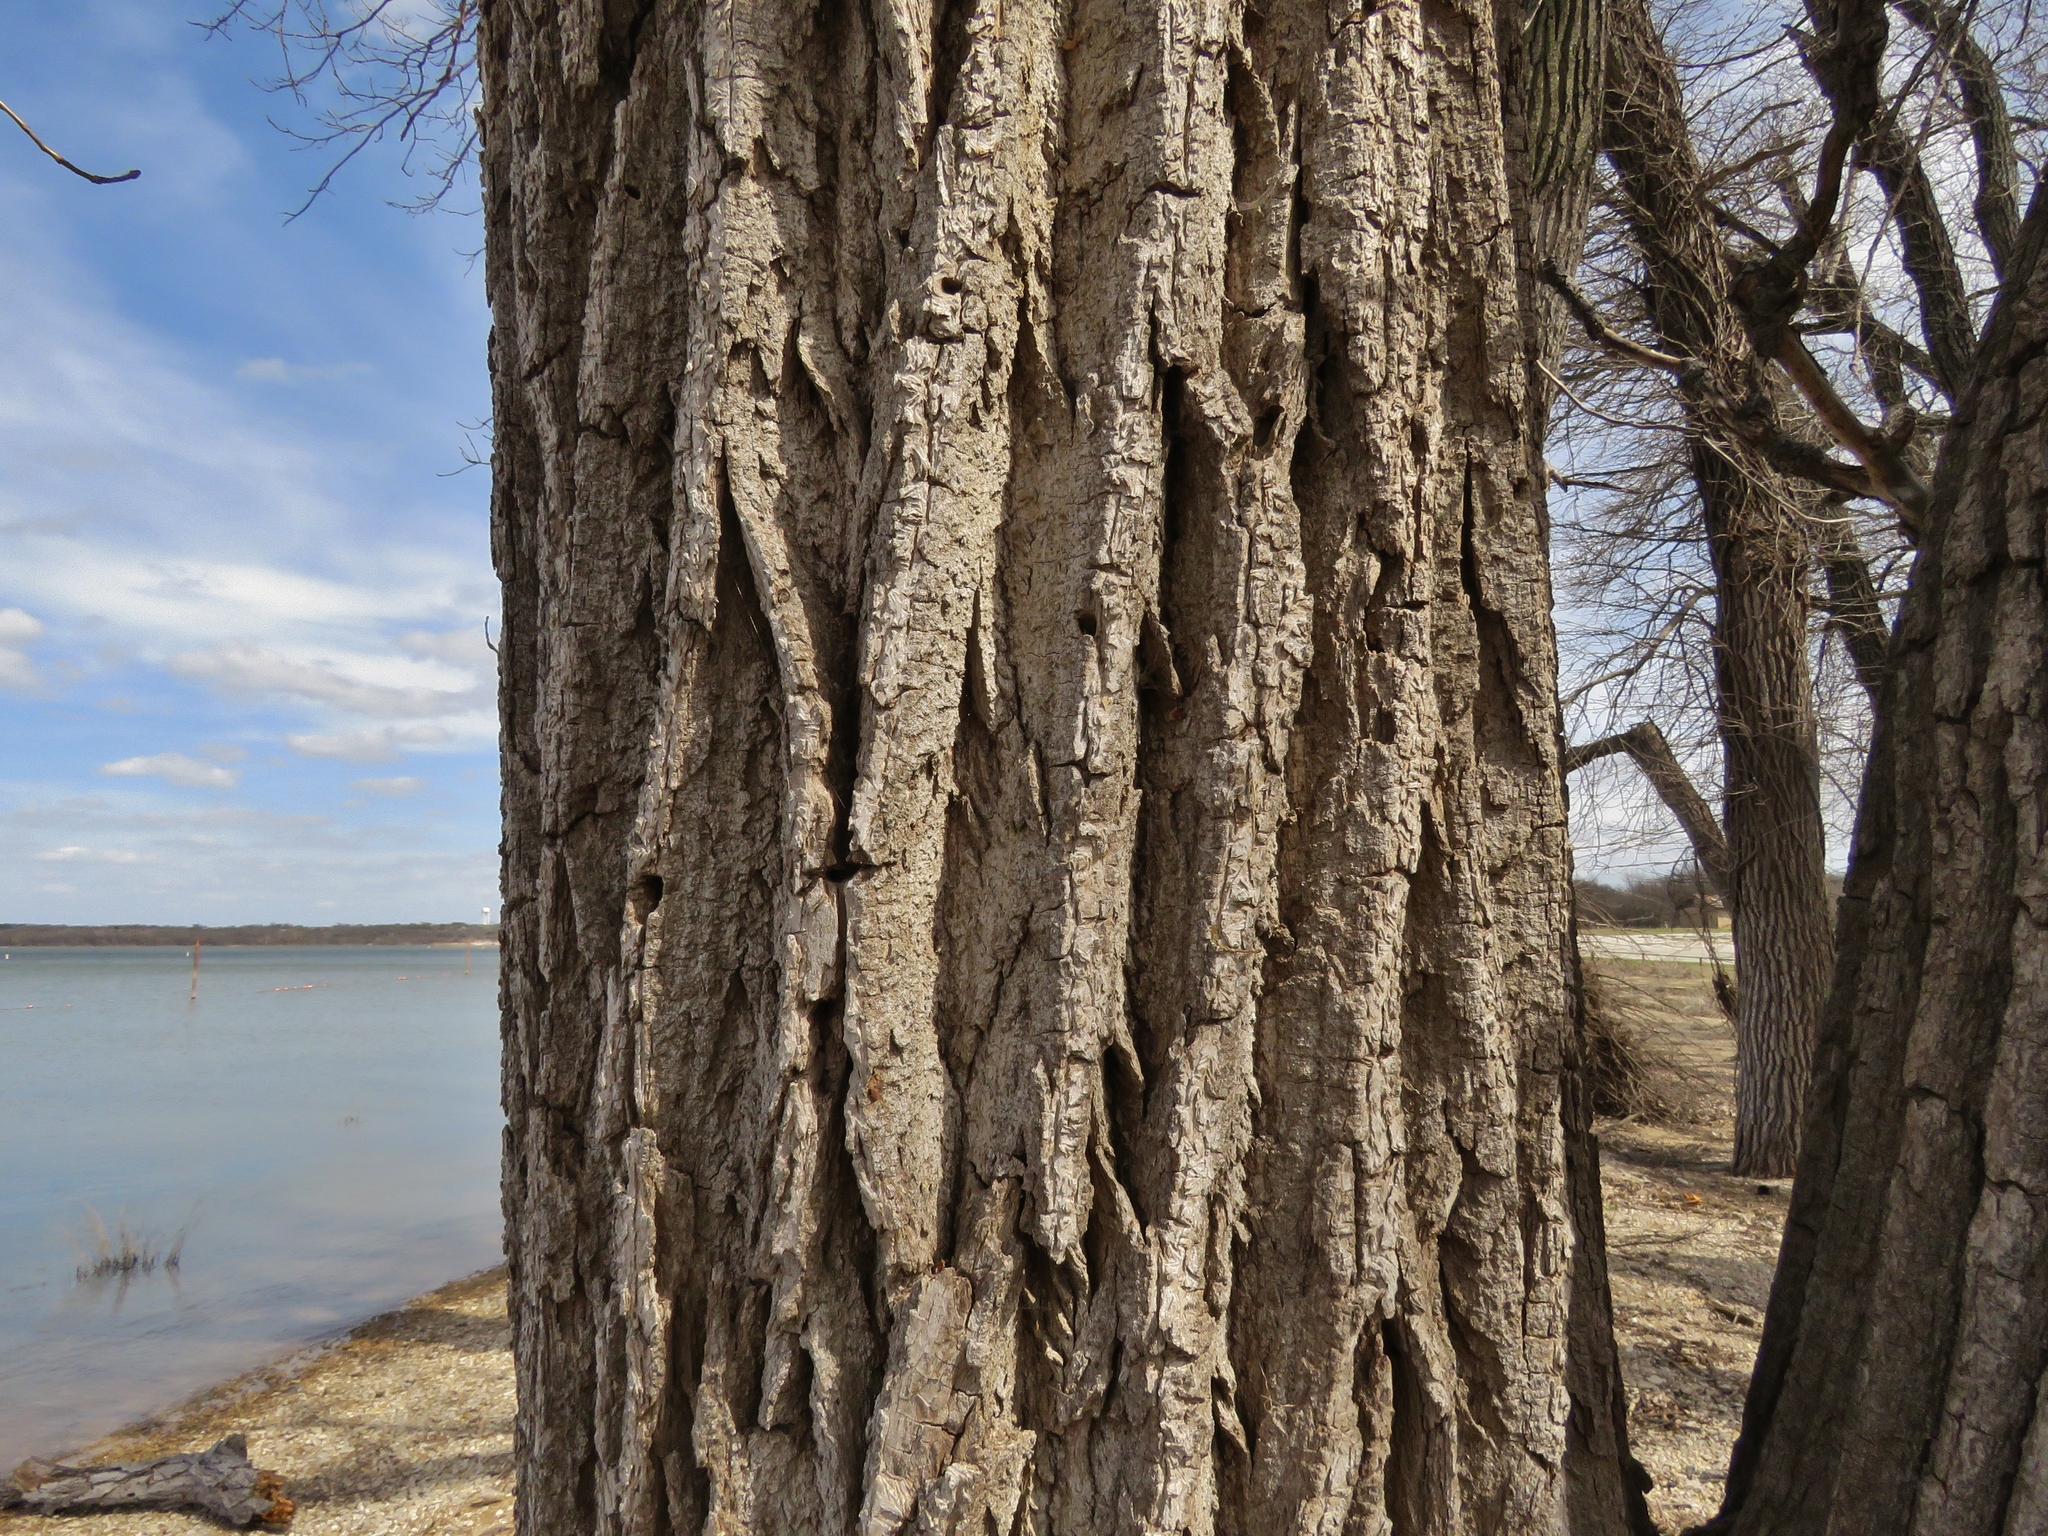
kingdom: Plantae
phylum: Tracheophyta
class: Magnoliopsida
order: Malpighiales
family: Salicaceae
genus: Populus
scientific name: Populus deltoides
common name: Eastern cottonwood
